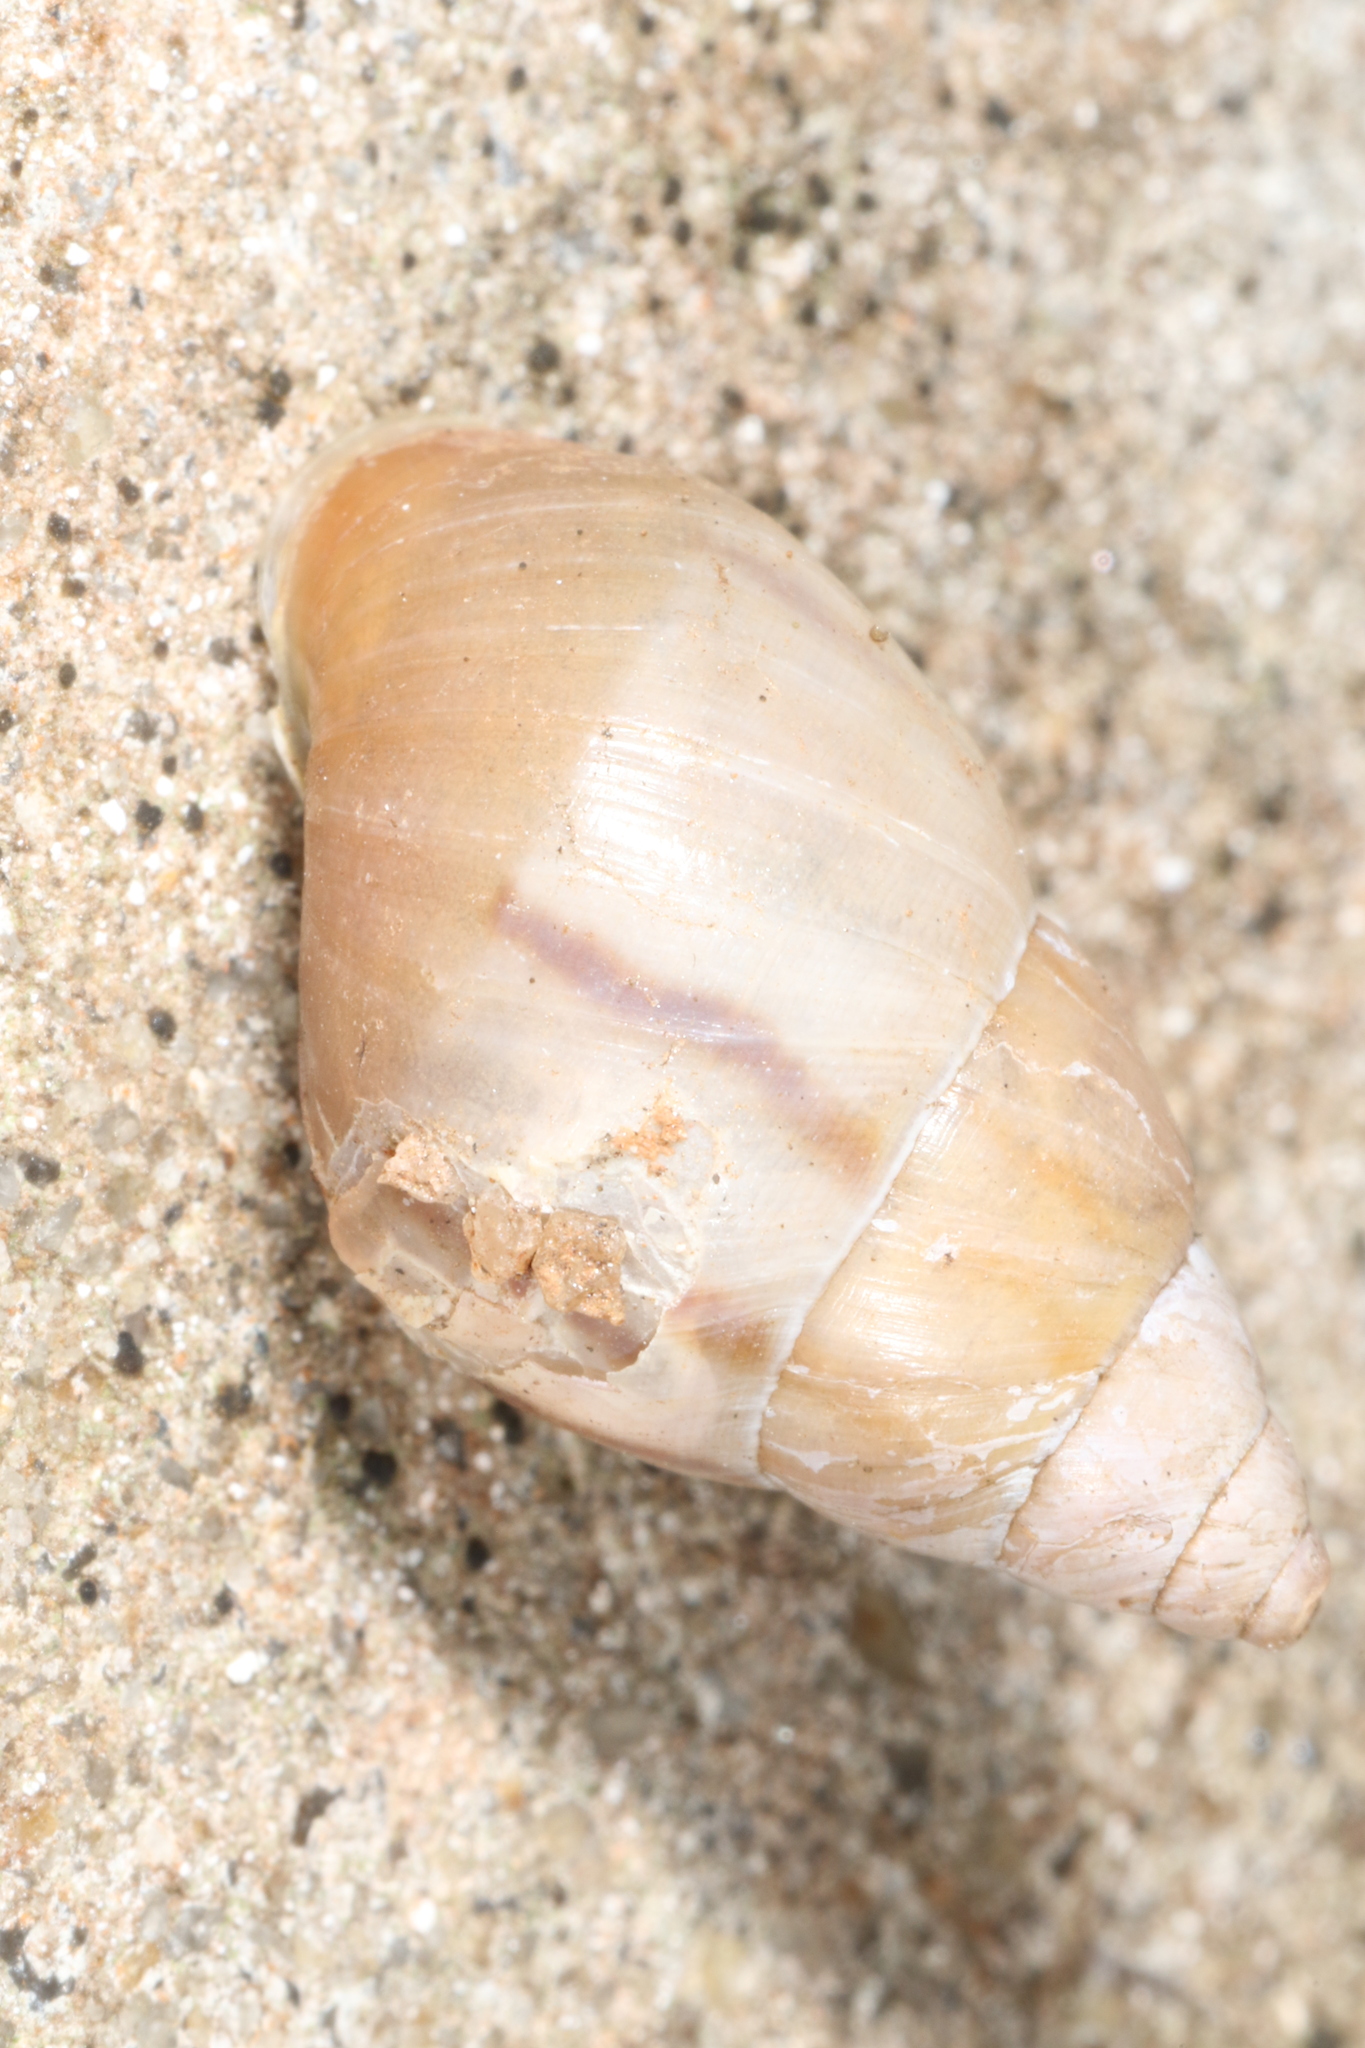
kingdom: Animalia
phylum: Mollusca
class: Gastropoda
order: Stylommatophora
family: Bulimulidae
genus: Drymaeus
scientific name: Drymaeus semistriatus
